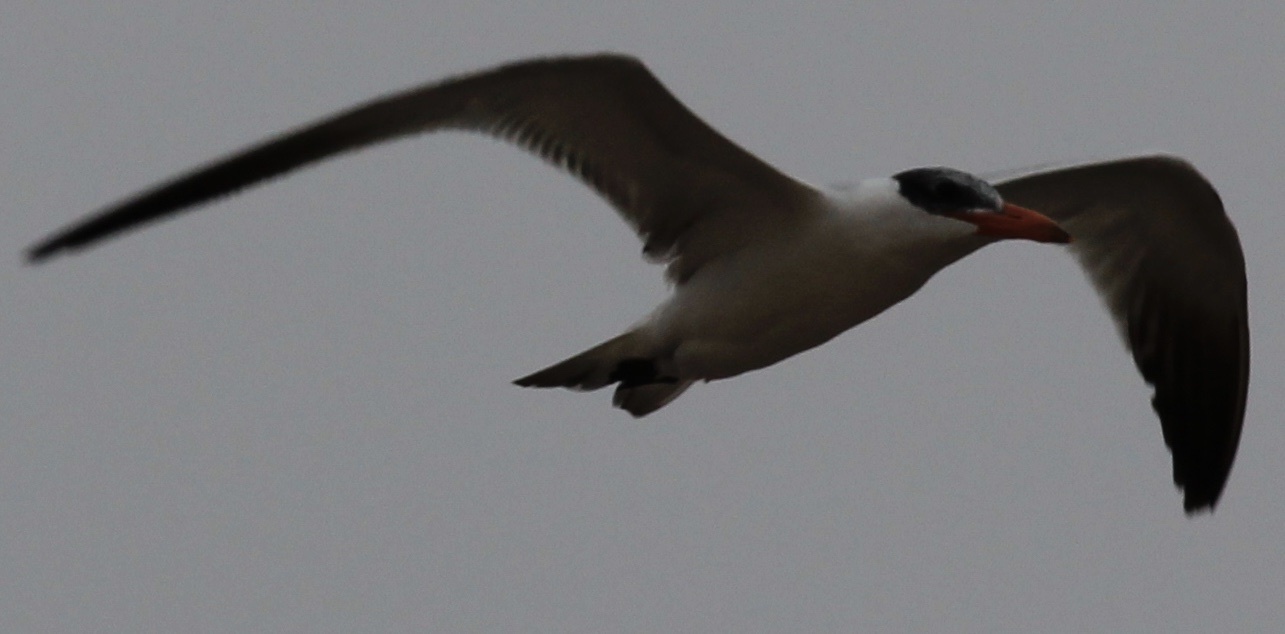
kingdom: Animalia
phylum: Chordata
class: Aves
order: Charadriiformes
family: Laridae
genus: Hydroprogne
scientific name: Hydroprogne caspia
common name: Caspian tern
